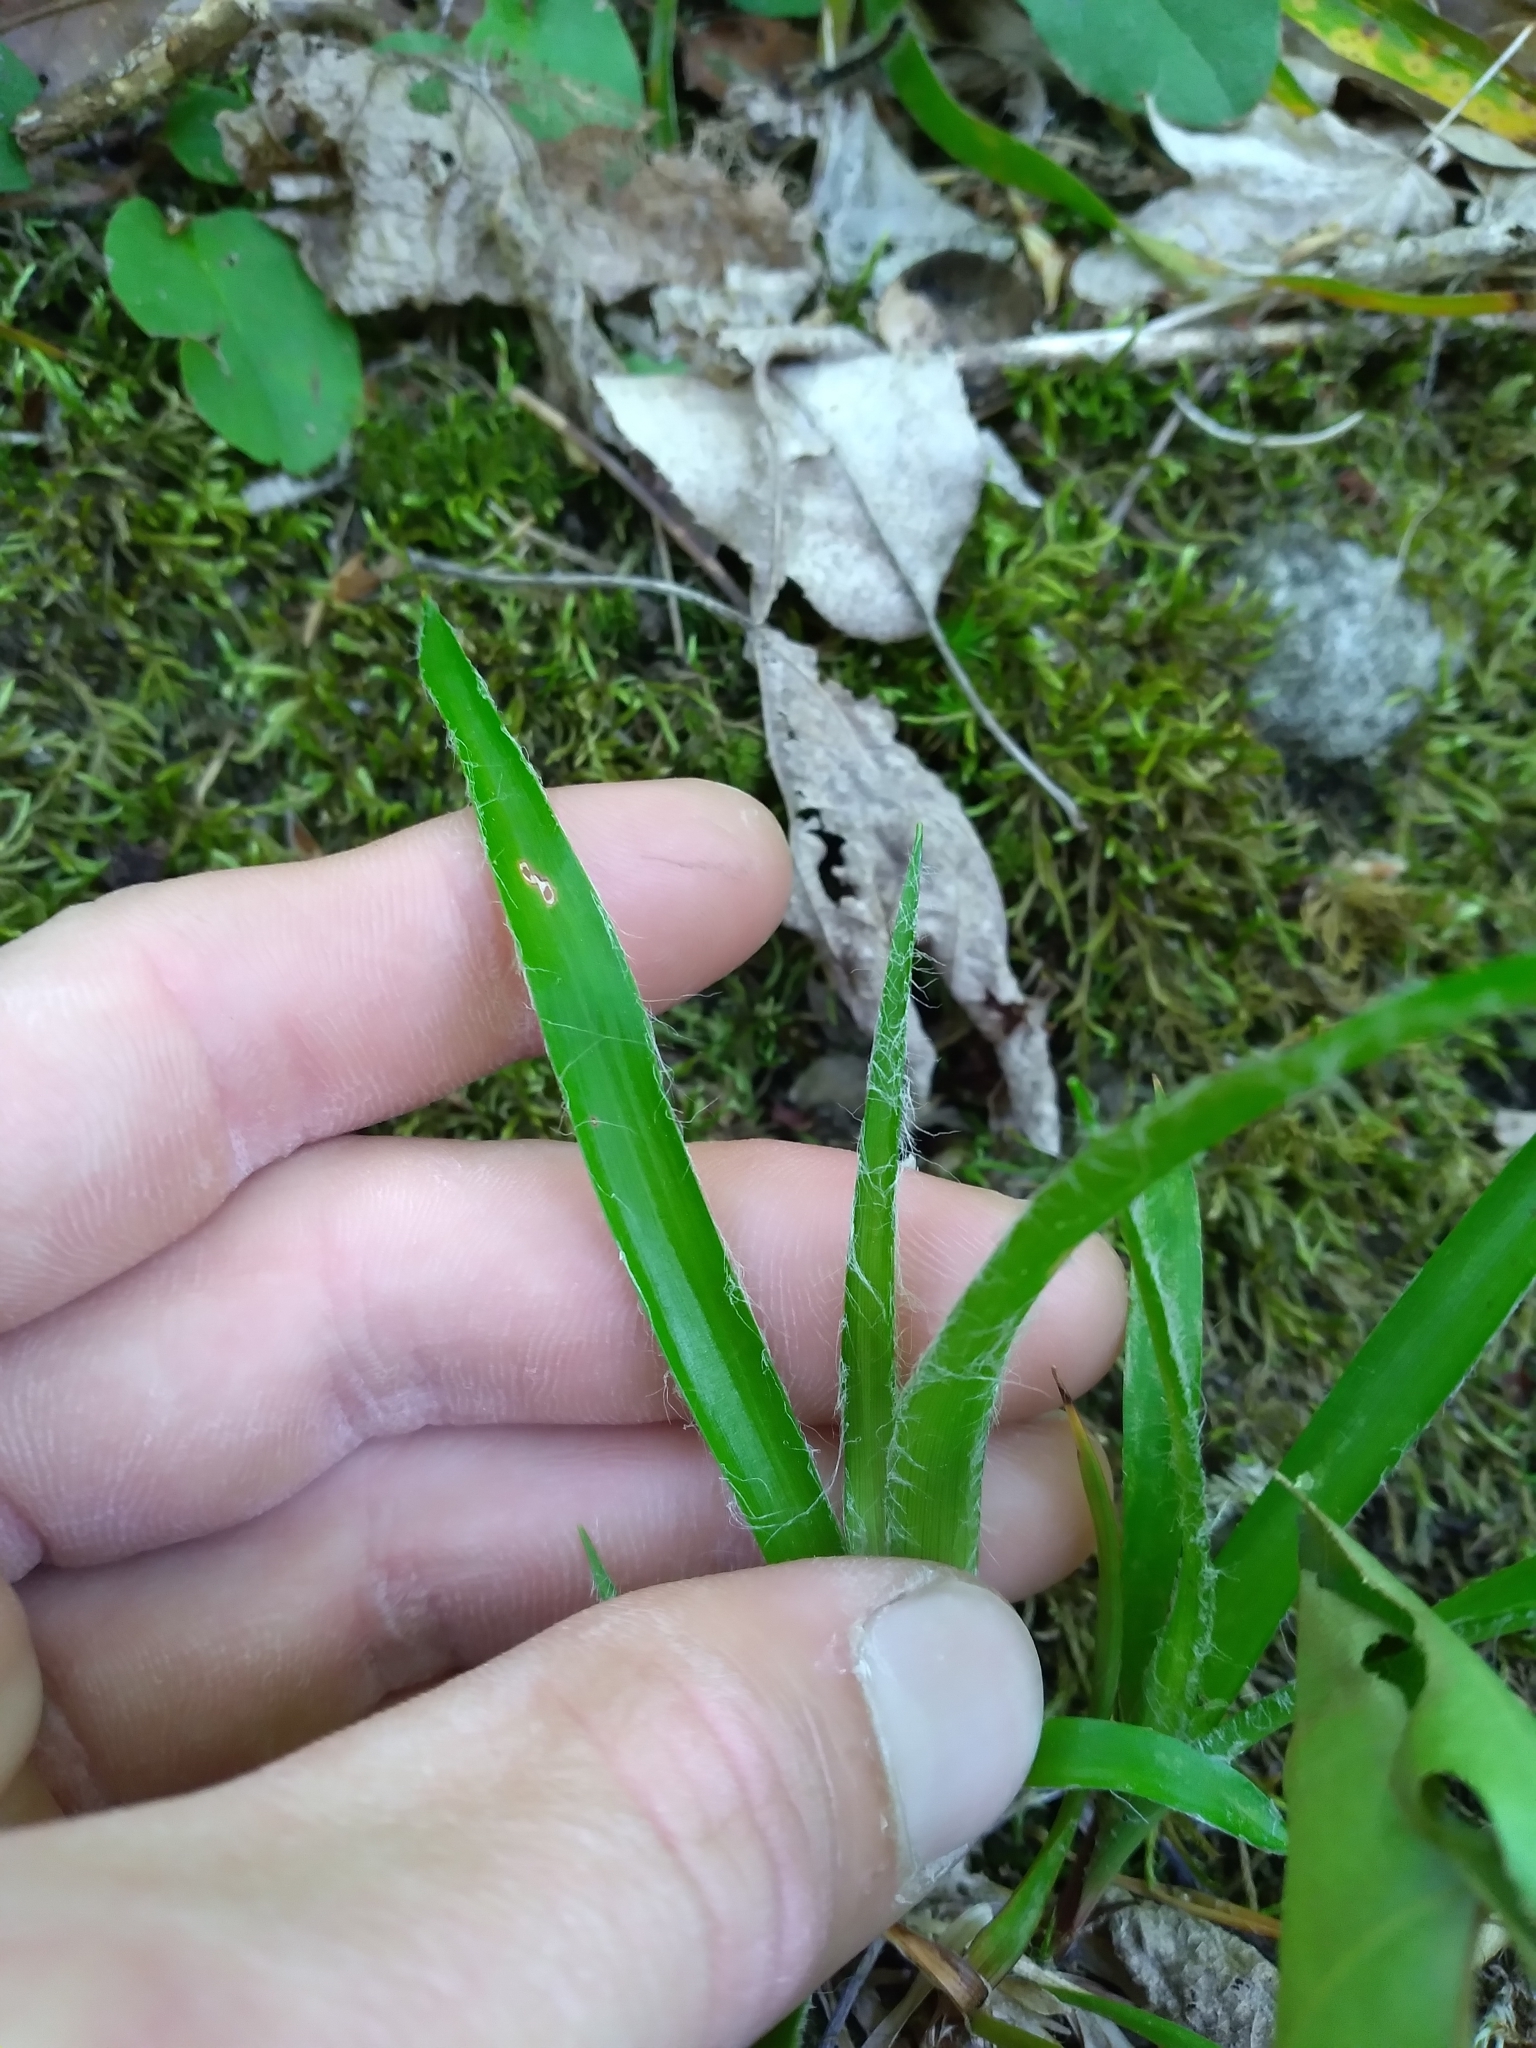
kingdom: Plantae
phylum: Tracheophyta
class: Liliopsida
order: Poales
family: Juncaceae
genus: Luzula
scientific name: Luzula acuminata
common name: Hairy woodrush
